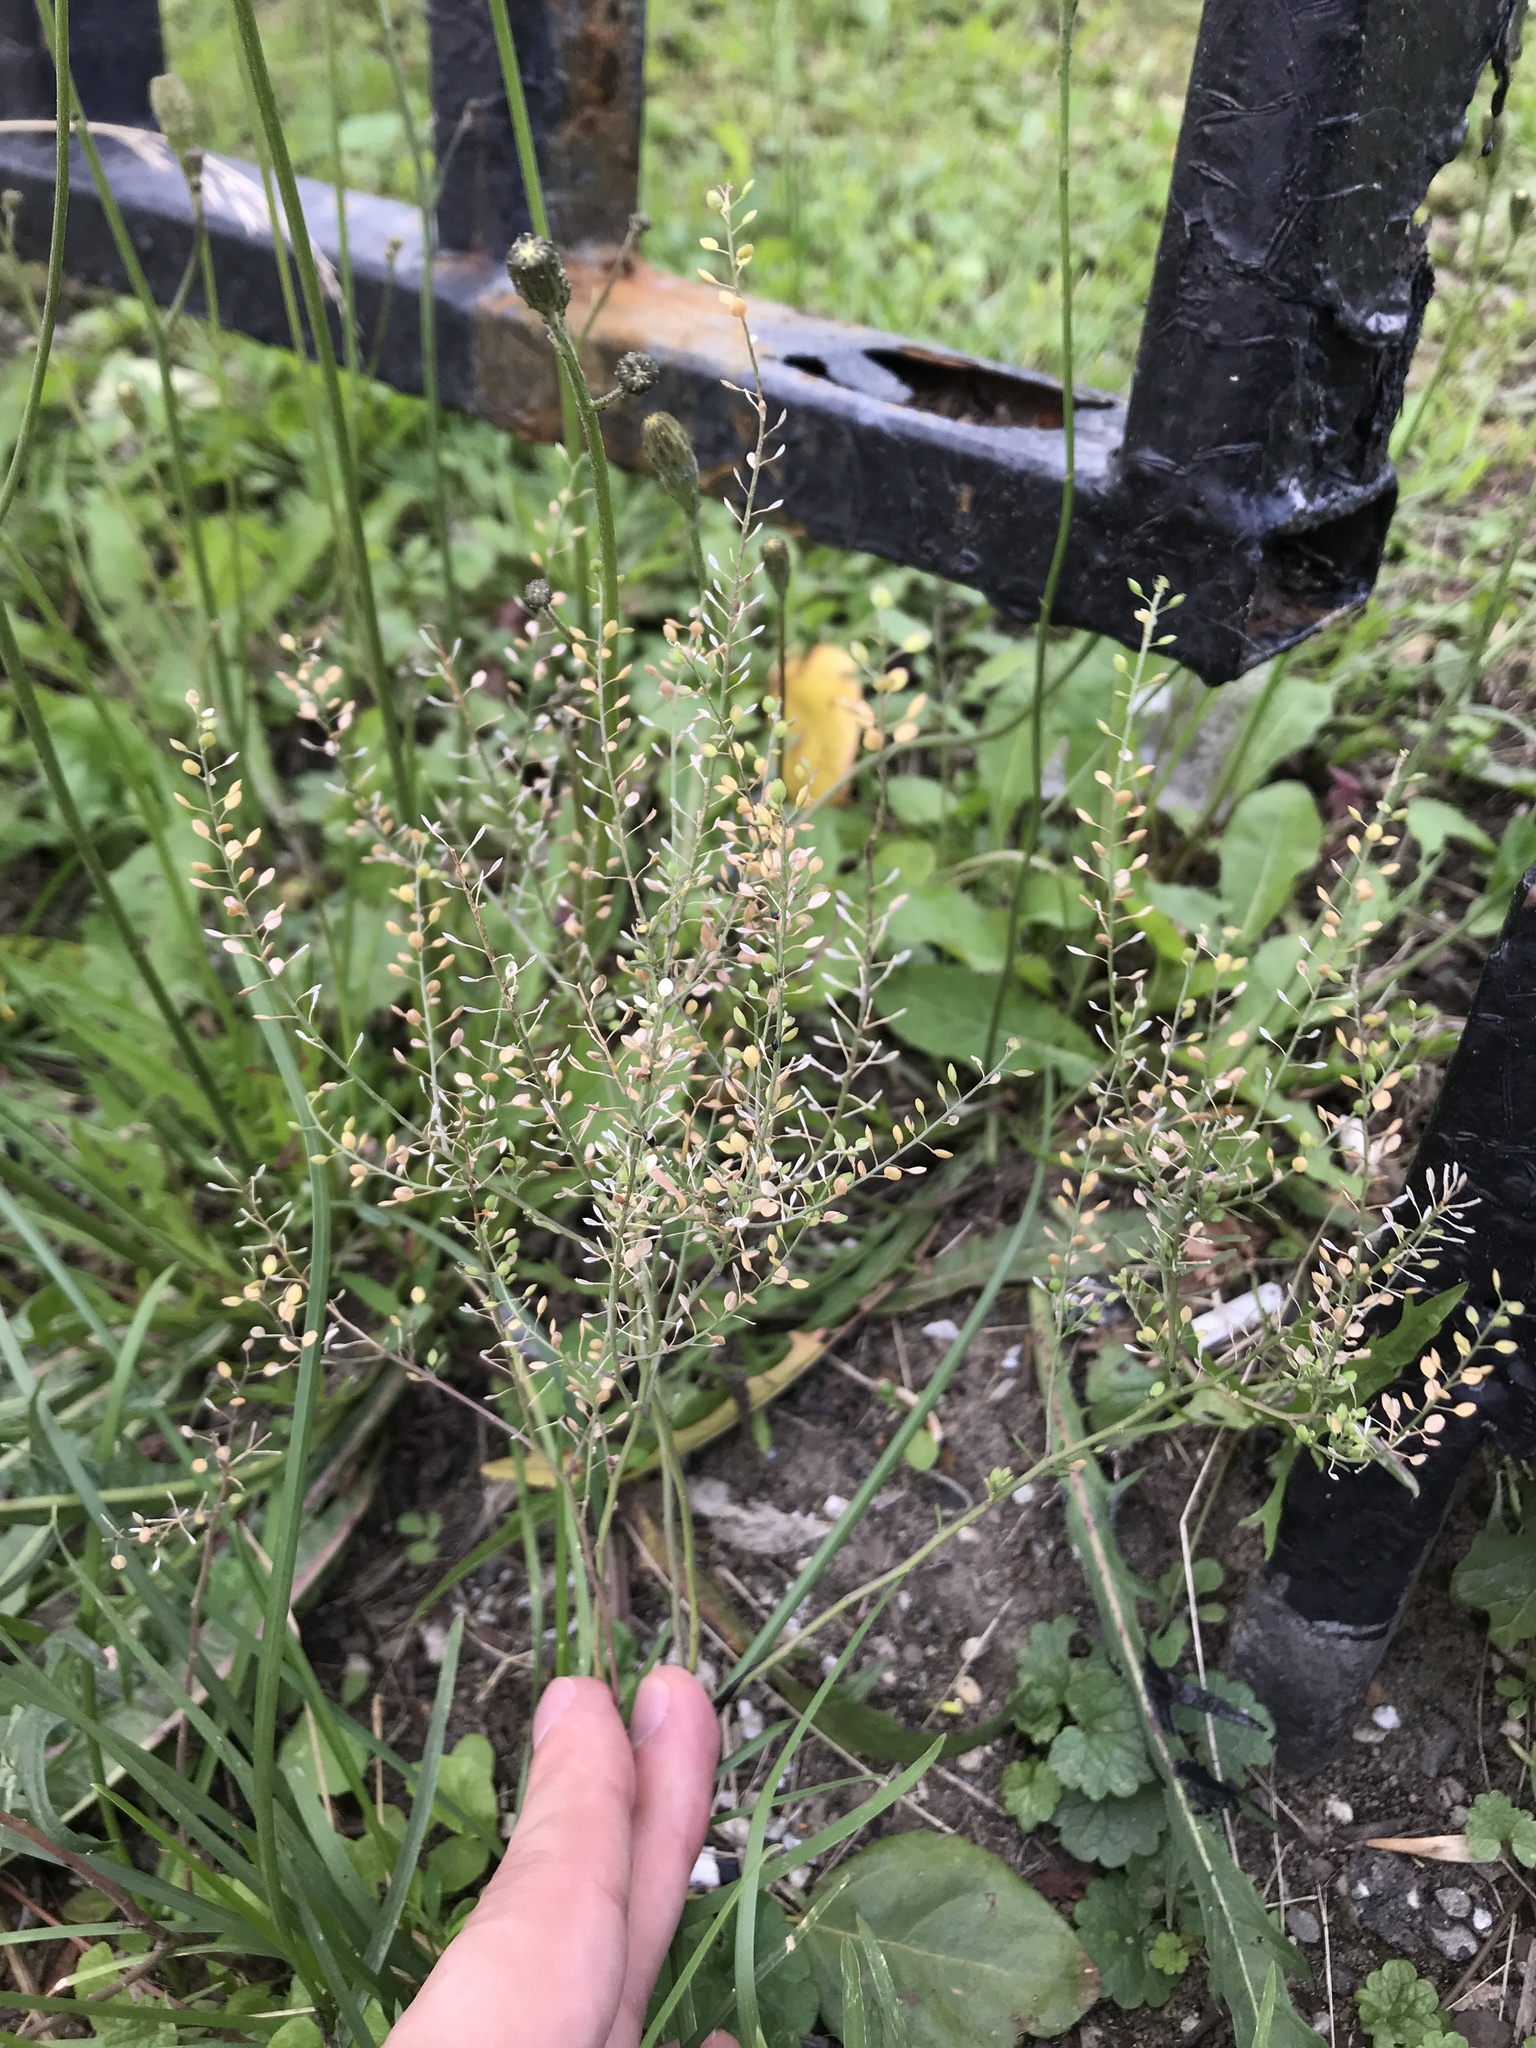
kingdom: Plantae
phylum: Tracheophyta
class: Magnoliopsida
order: Brassicales
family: Brassicaceae
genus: Lepidium
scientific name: Lepidium ruderale
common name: Narrow-leaved pepperwort
